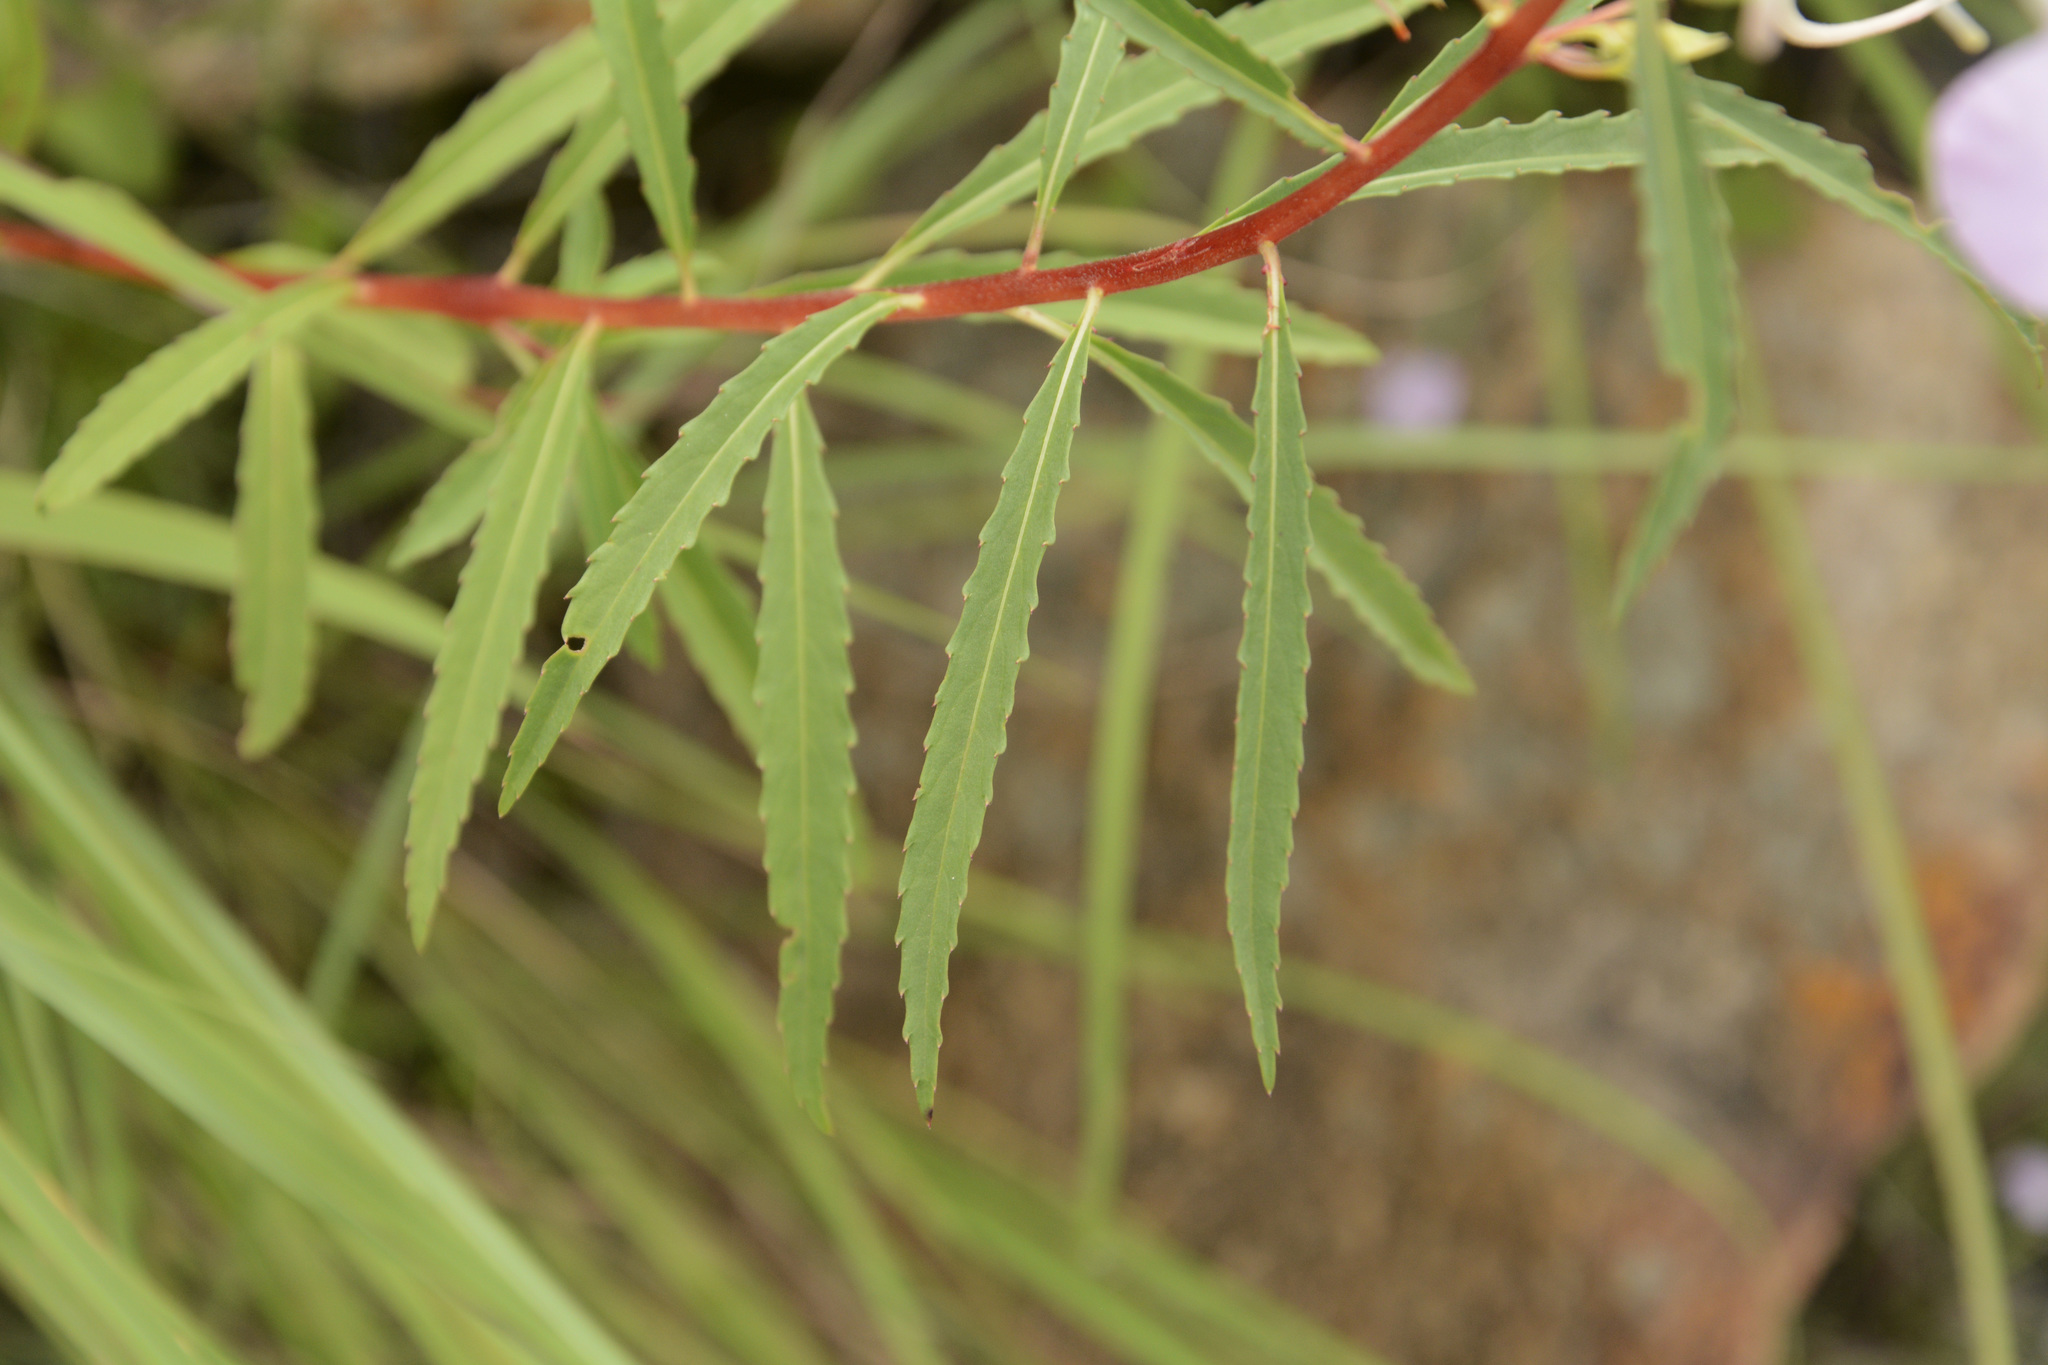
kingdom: Plantae
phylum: Tracheophyta
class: Magnoliopsida
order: Ericales
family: Balsaminaceae
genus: Impatiens
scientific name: Impatiens balsamina
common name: Balsam
